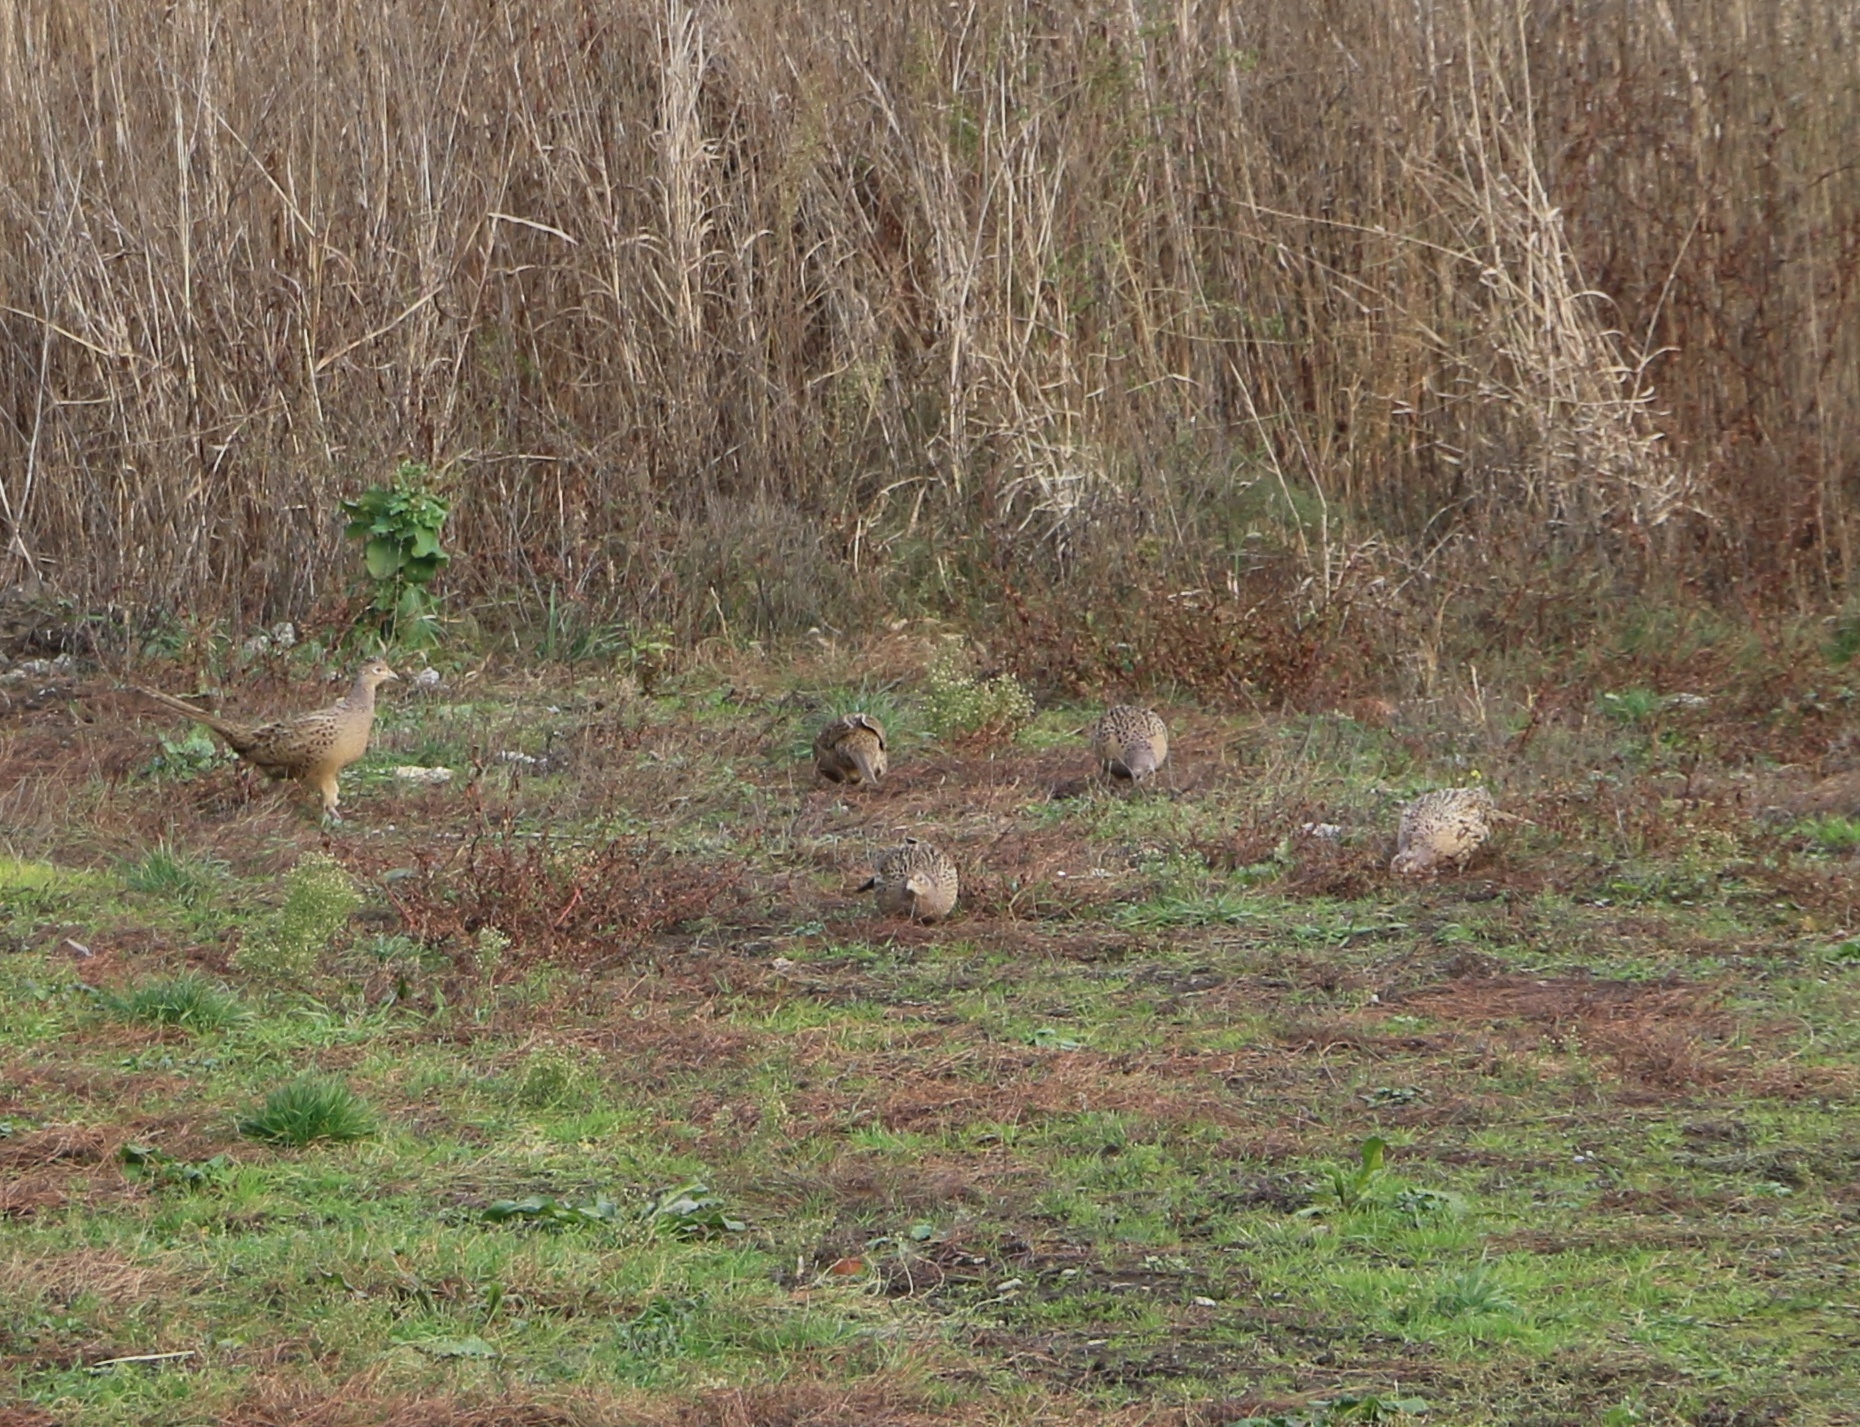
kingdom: Animalia
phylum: Chordata
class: Aves
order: Galliformes
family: Phasianidae
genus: Phasianus
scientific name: Phasianus colchicus
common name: Common pheasant
